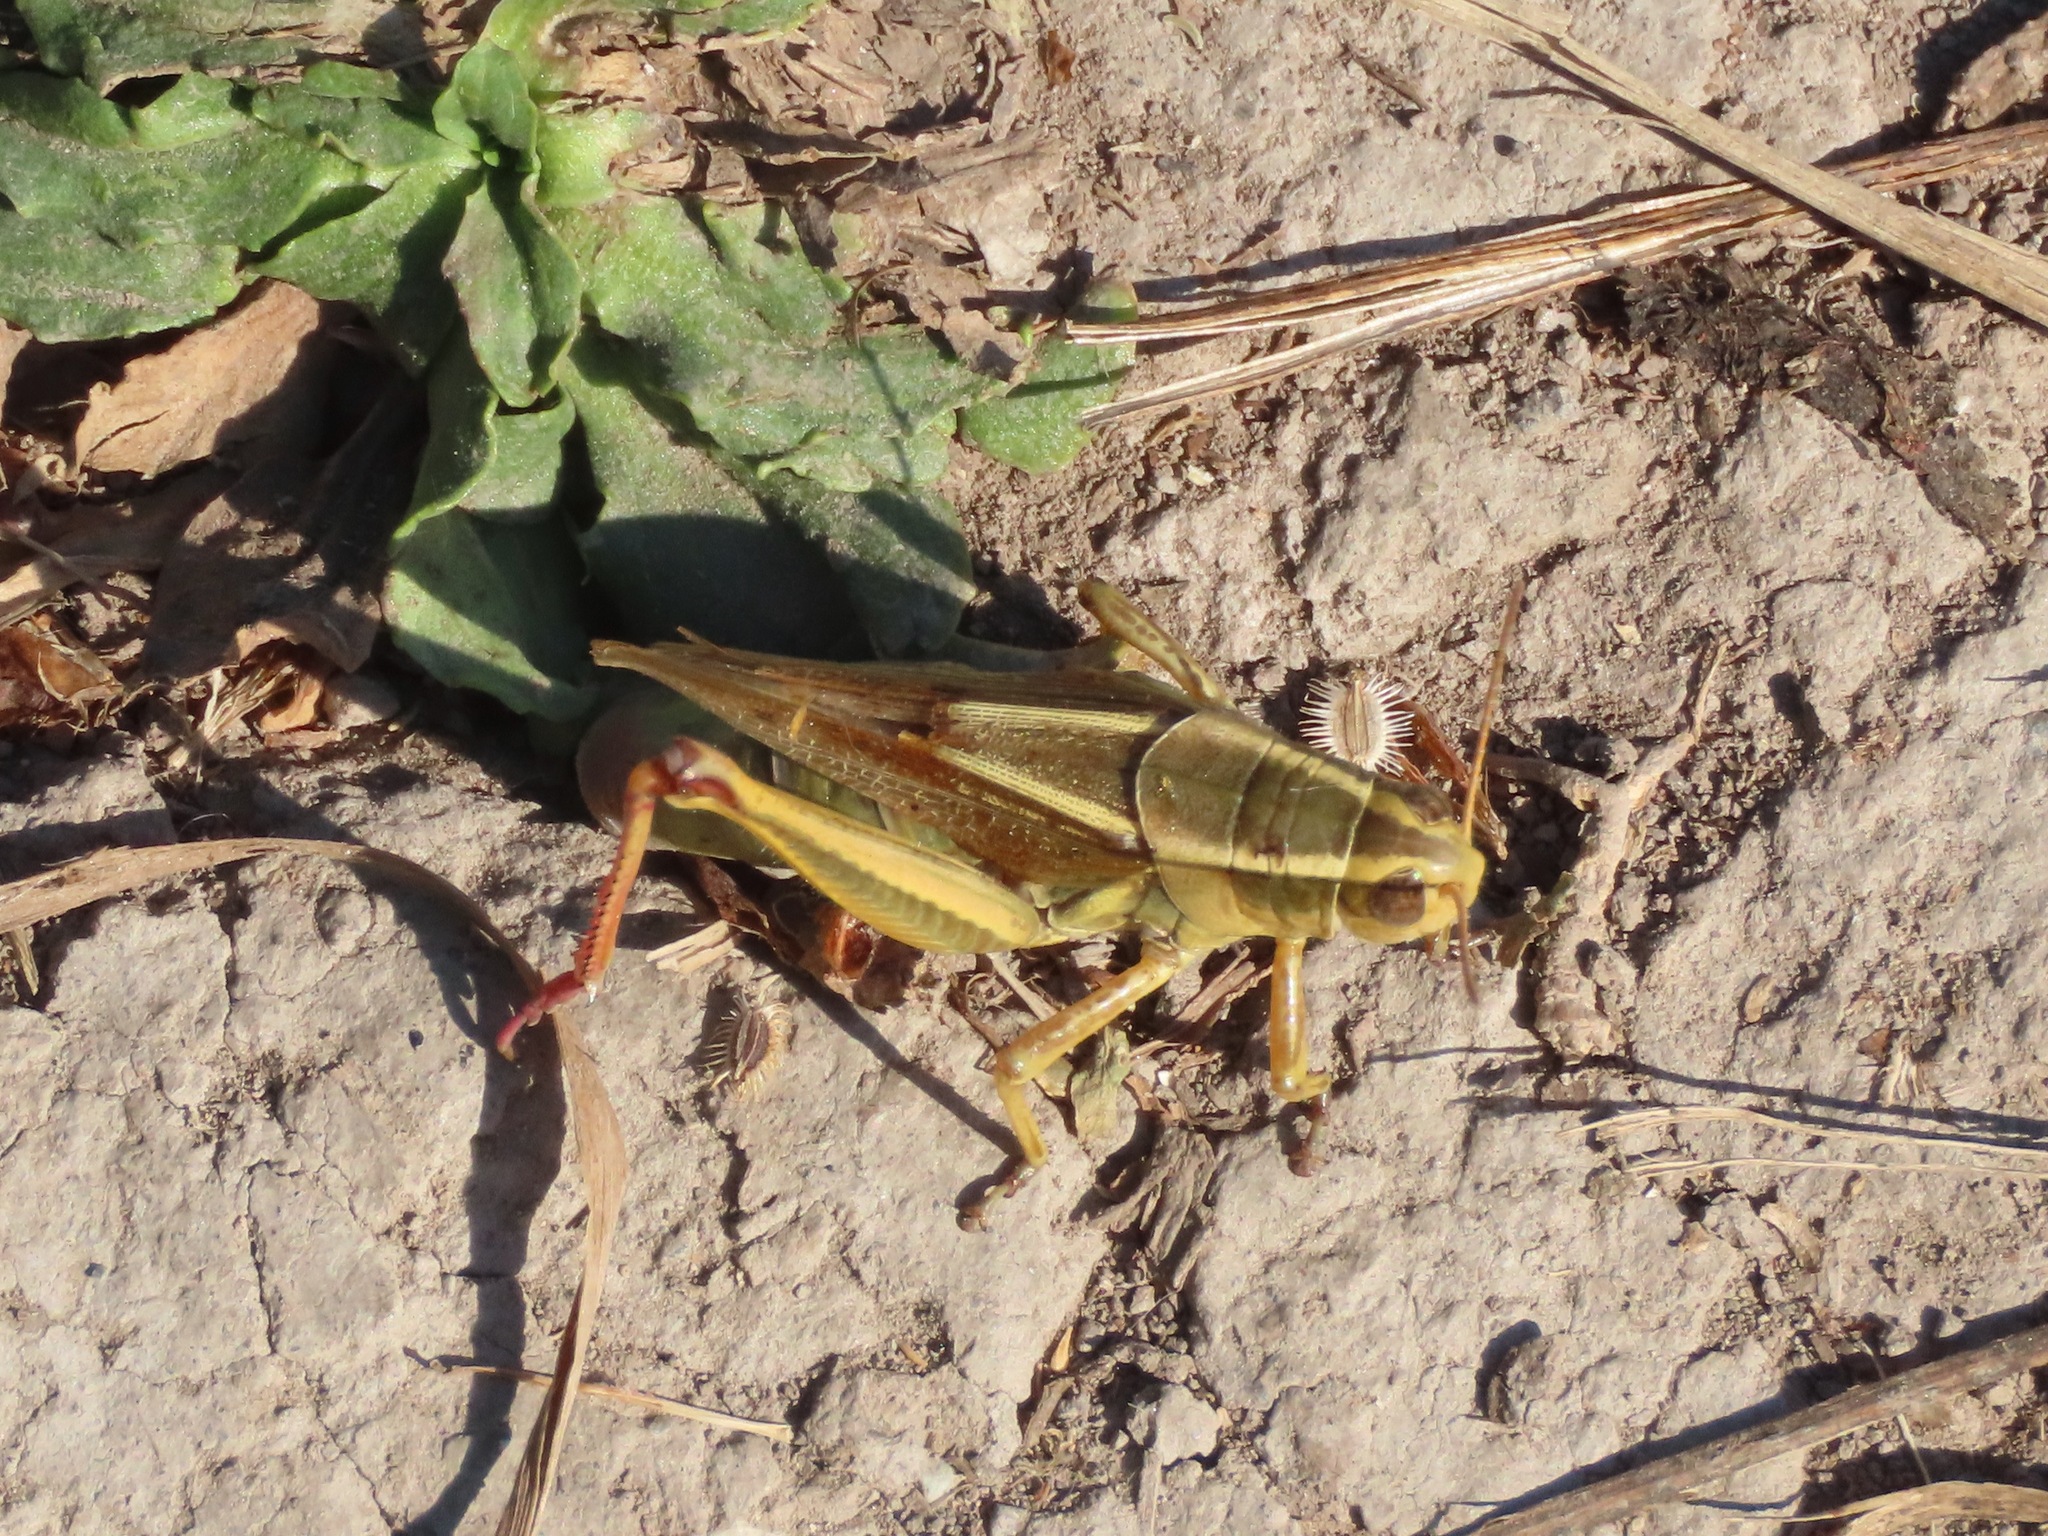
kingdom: Animalia
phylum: Arthropoda
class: Insecta
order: Orthoptera
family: Acrididae
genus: Melanoplus
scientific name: Melanoplus bivittatus
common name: Two-striped grasshopper
